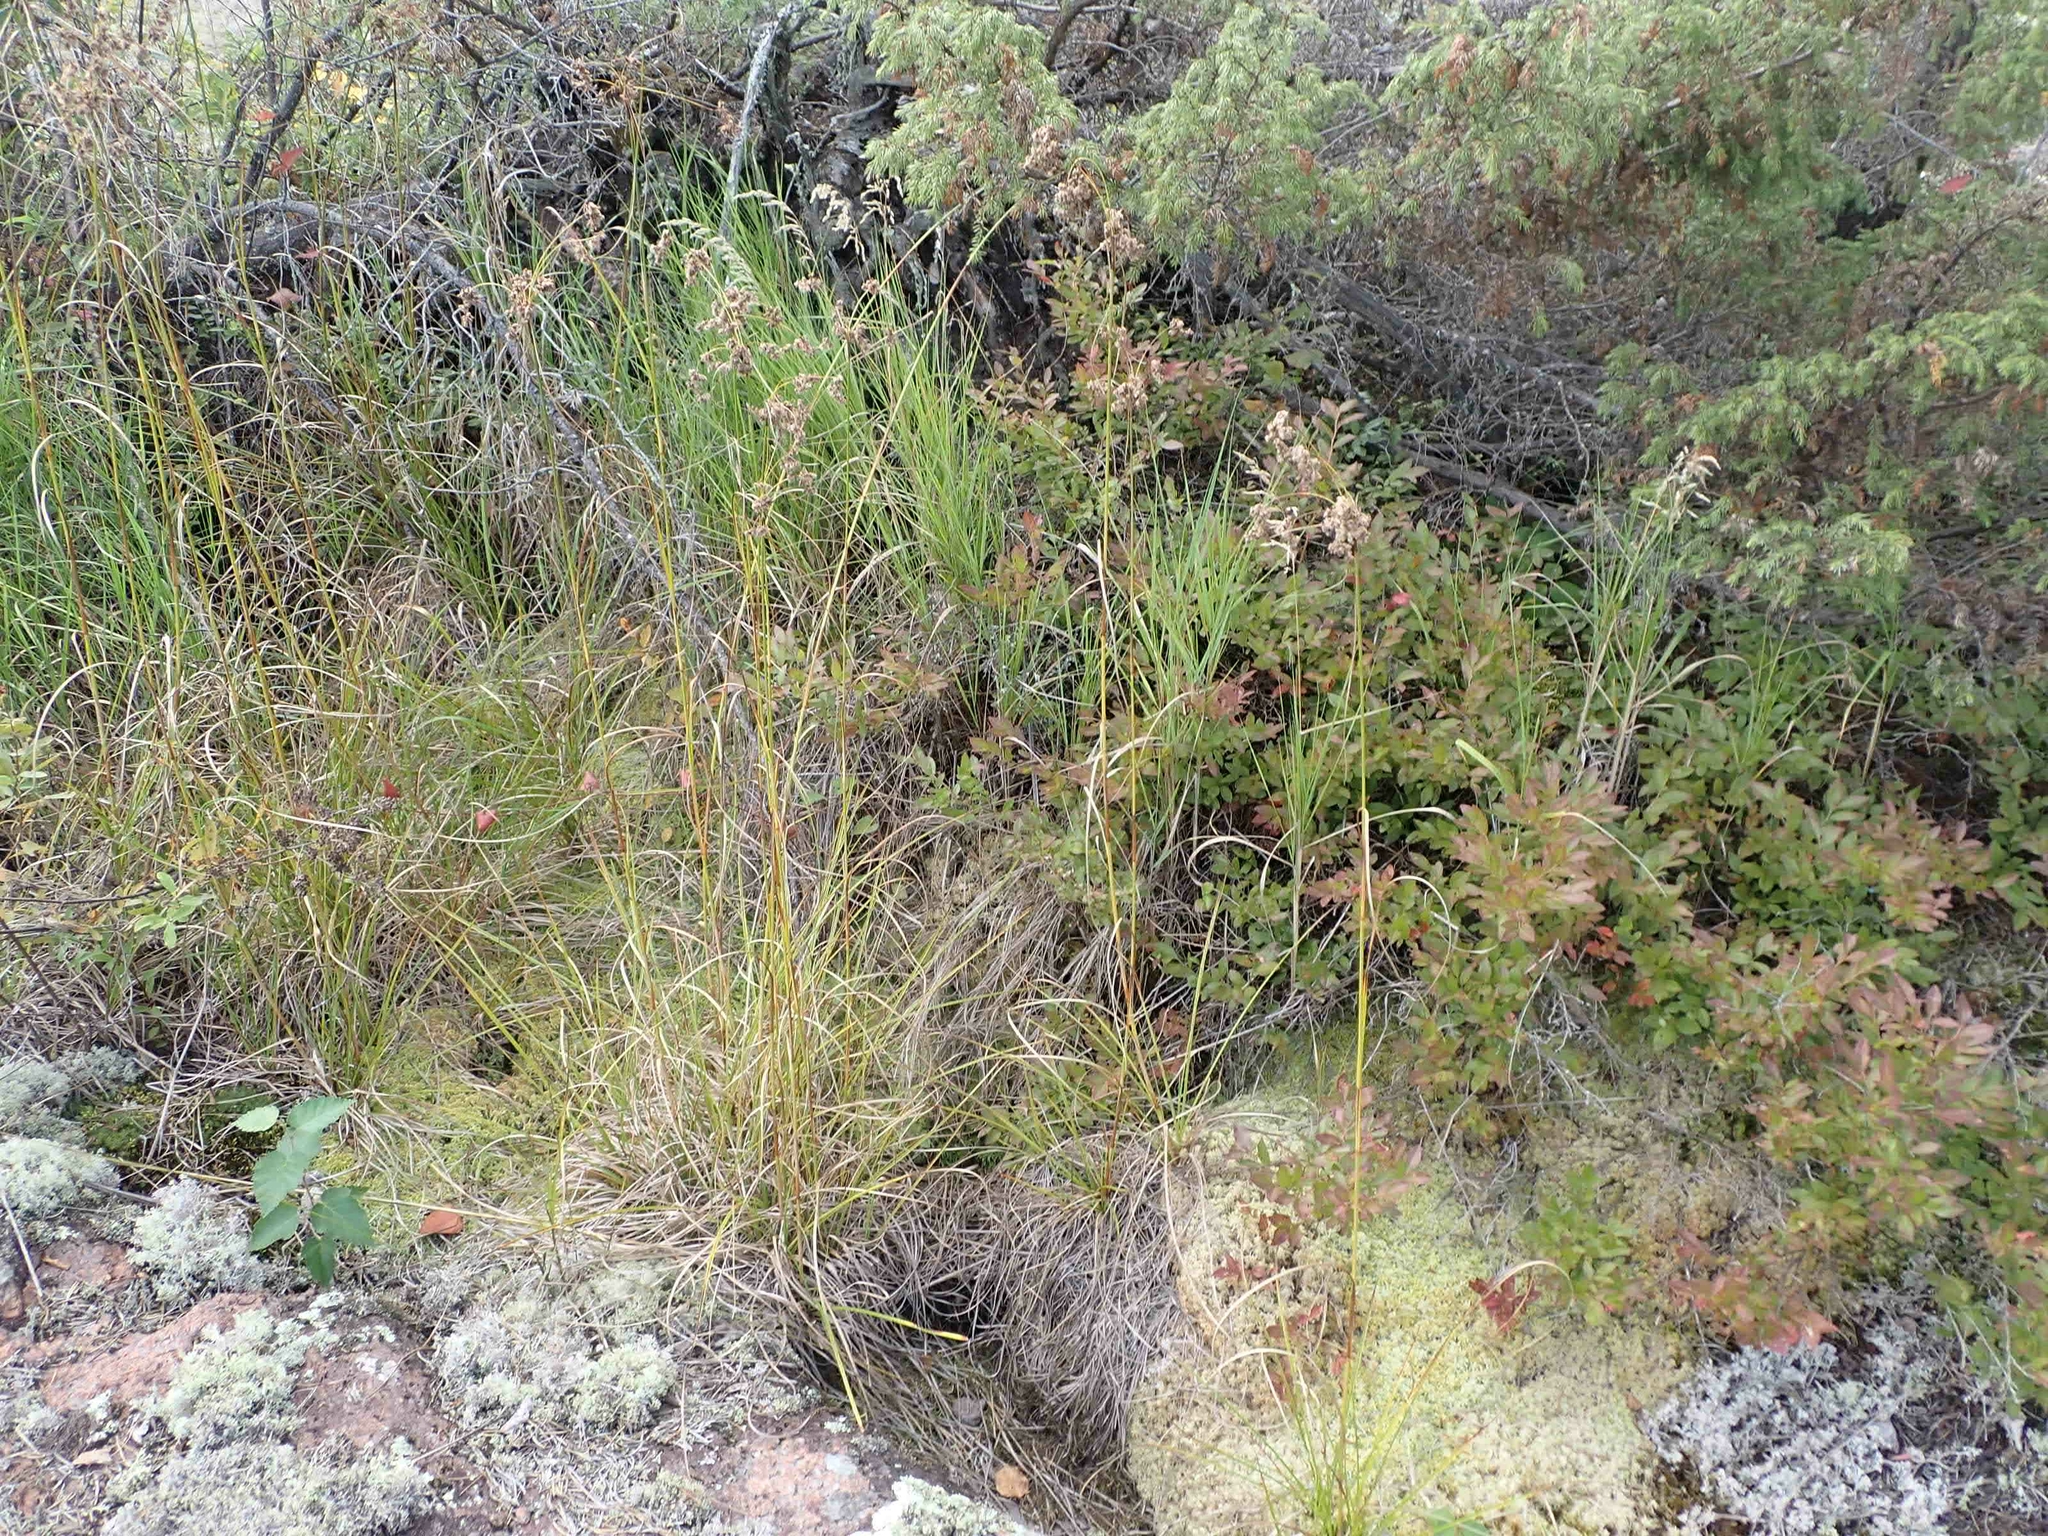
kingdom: Plantae
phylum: Tracheophyta
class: Liliopsida
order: Poales
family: Cyperaceae
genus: Scirpus
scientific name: Scirpus cyperinus
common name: Black-sheathed bulrush
